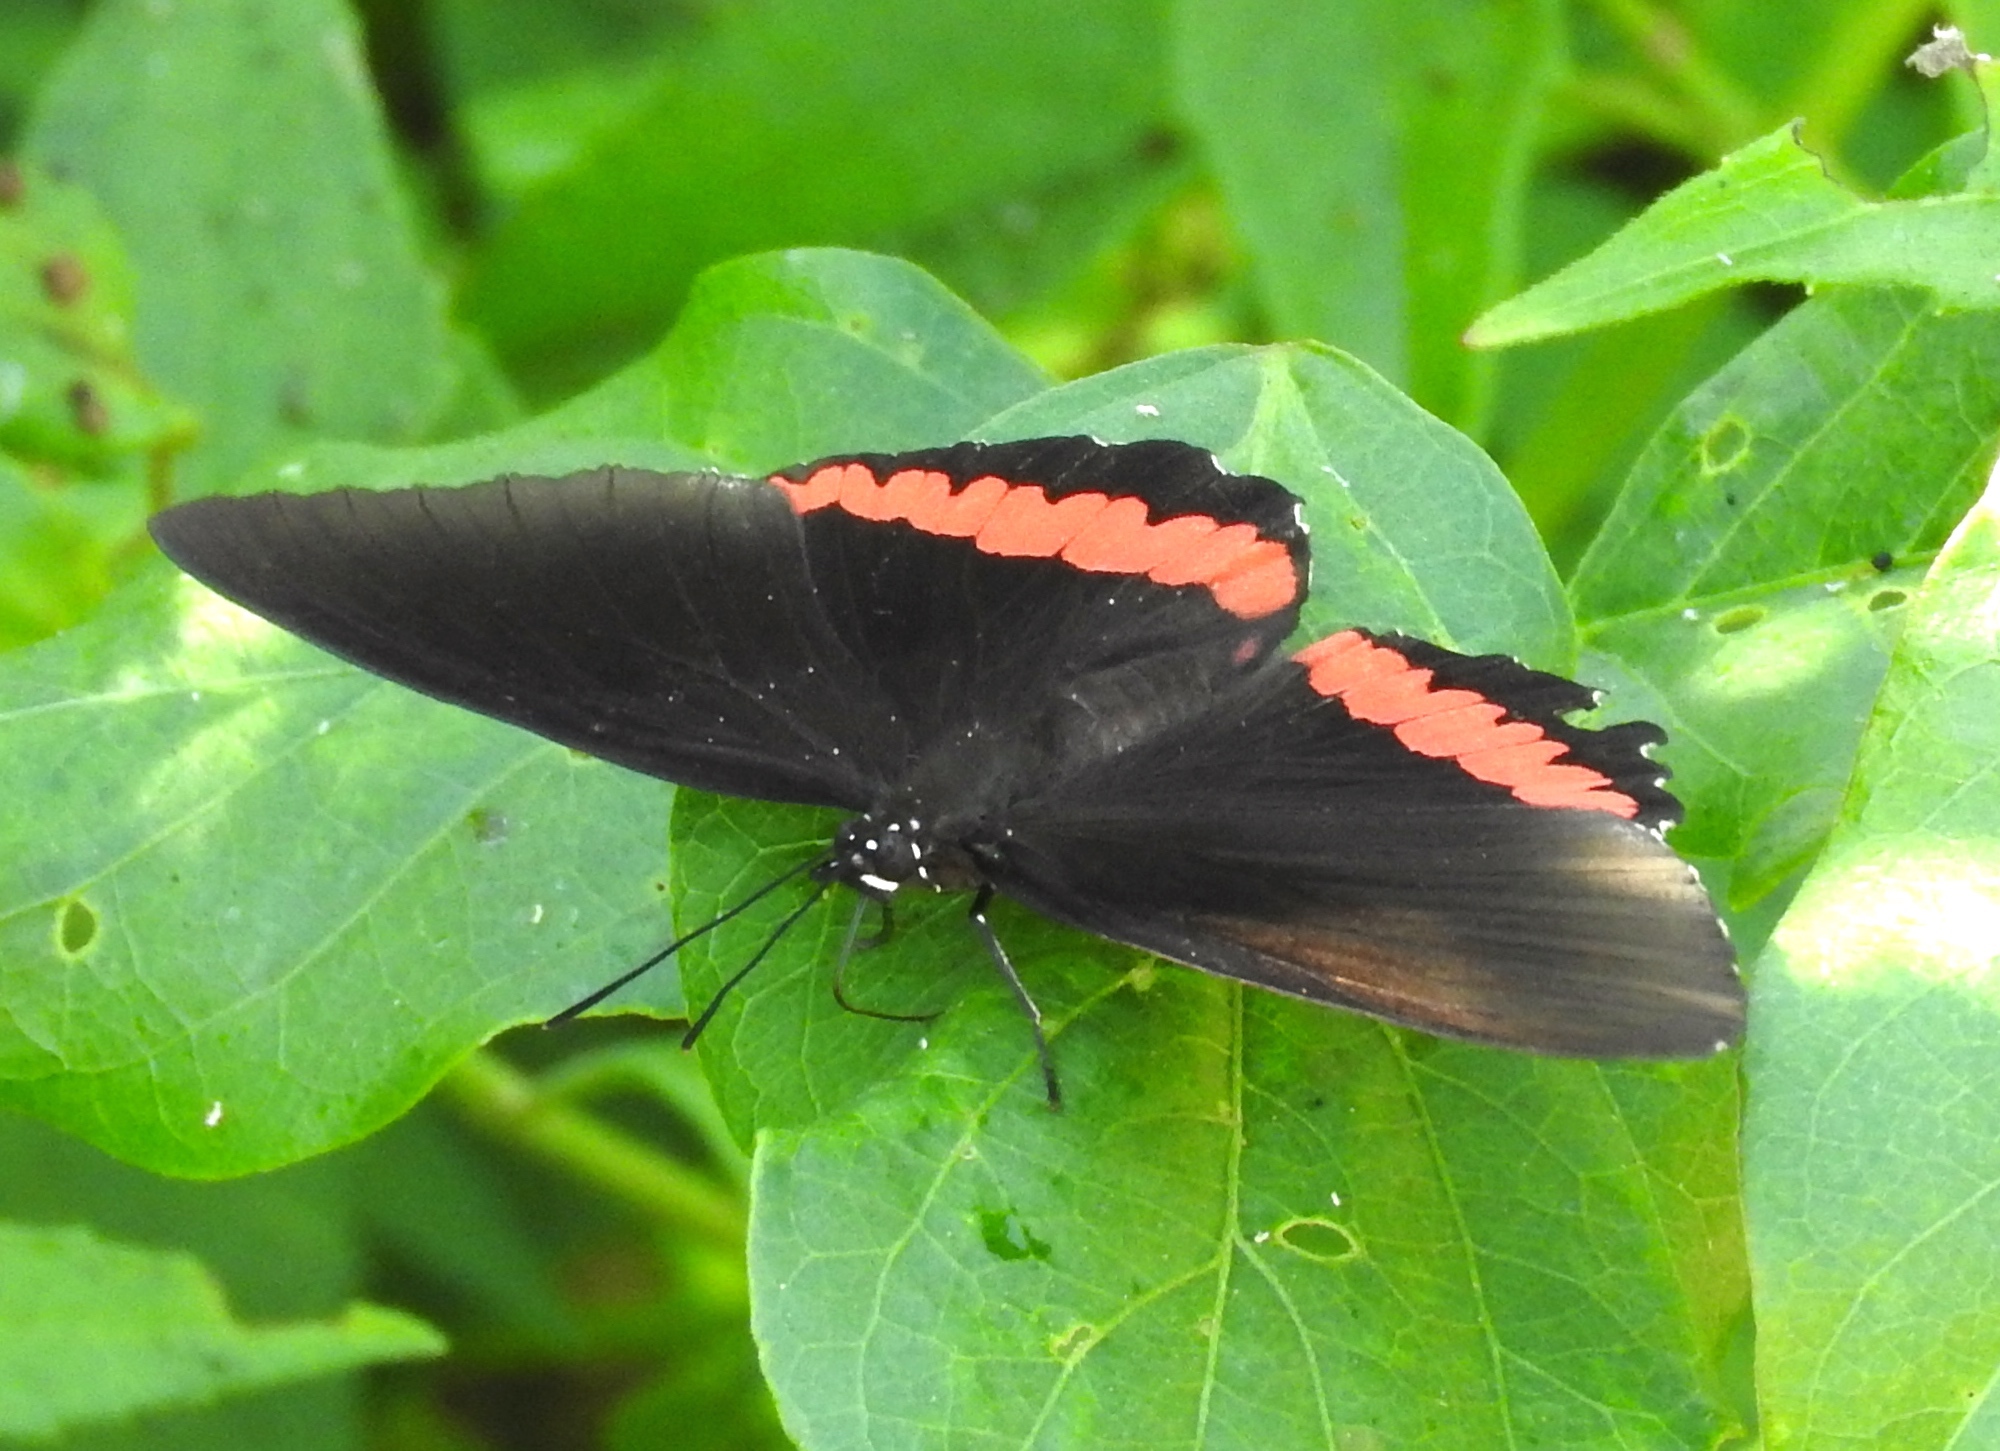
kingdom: Animalia
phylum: Arthropoda
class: Insecta
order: Lepidoptera
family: Nymphalidae
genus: Biblis
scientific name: Biblis aganisa
